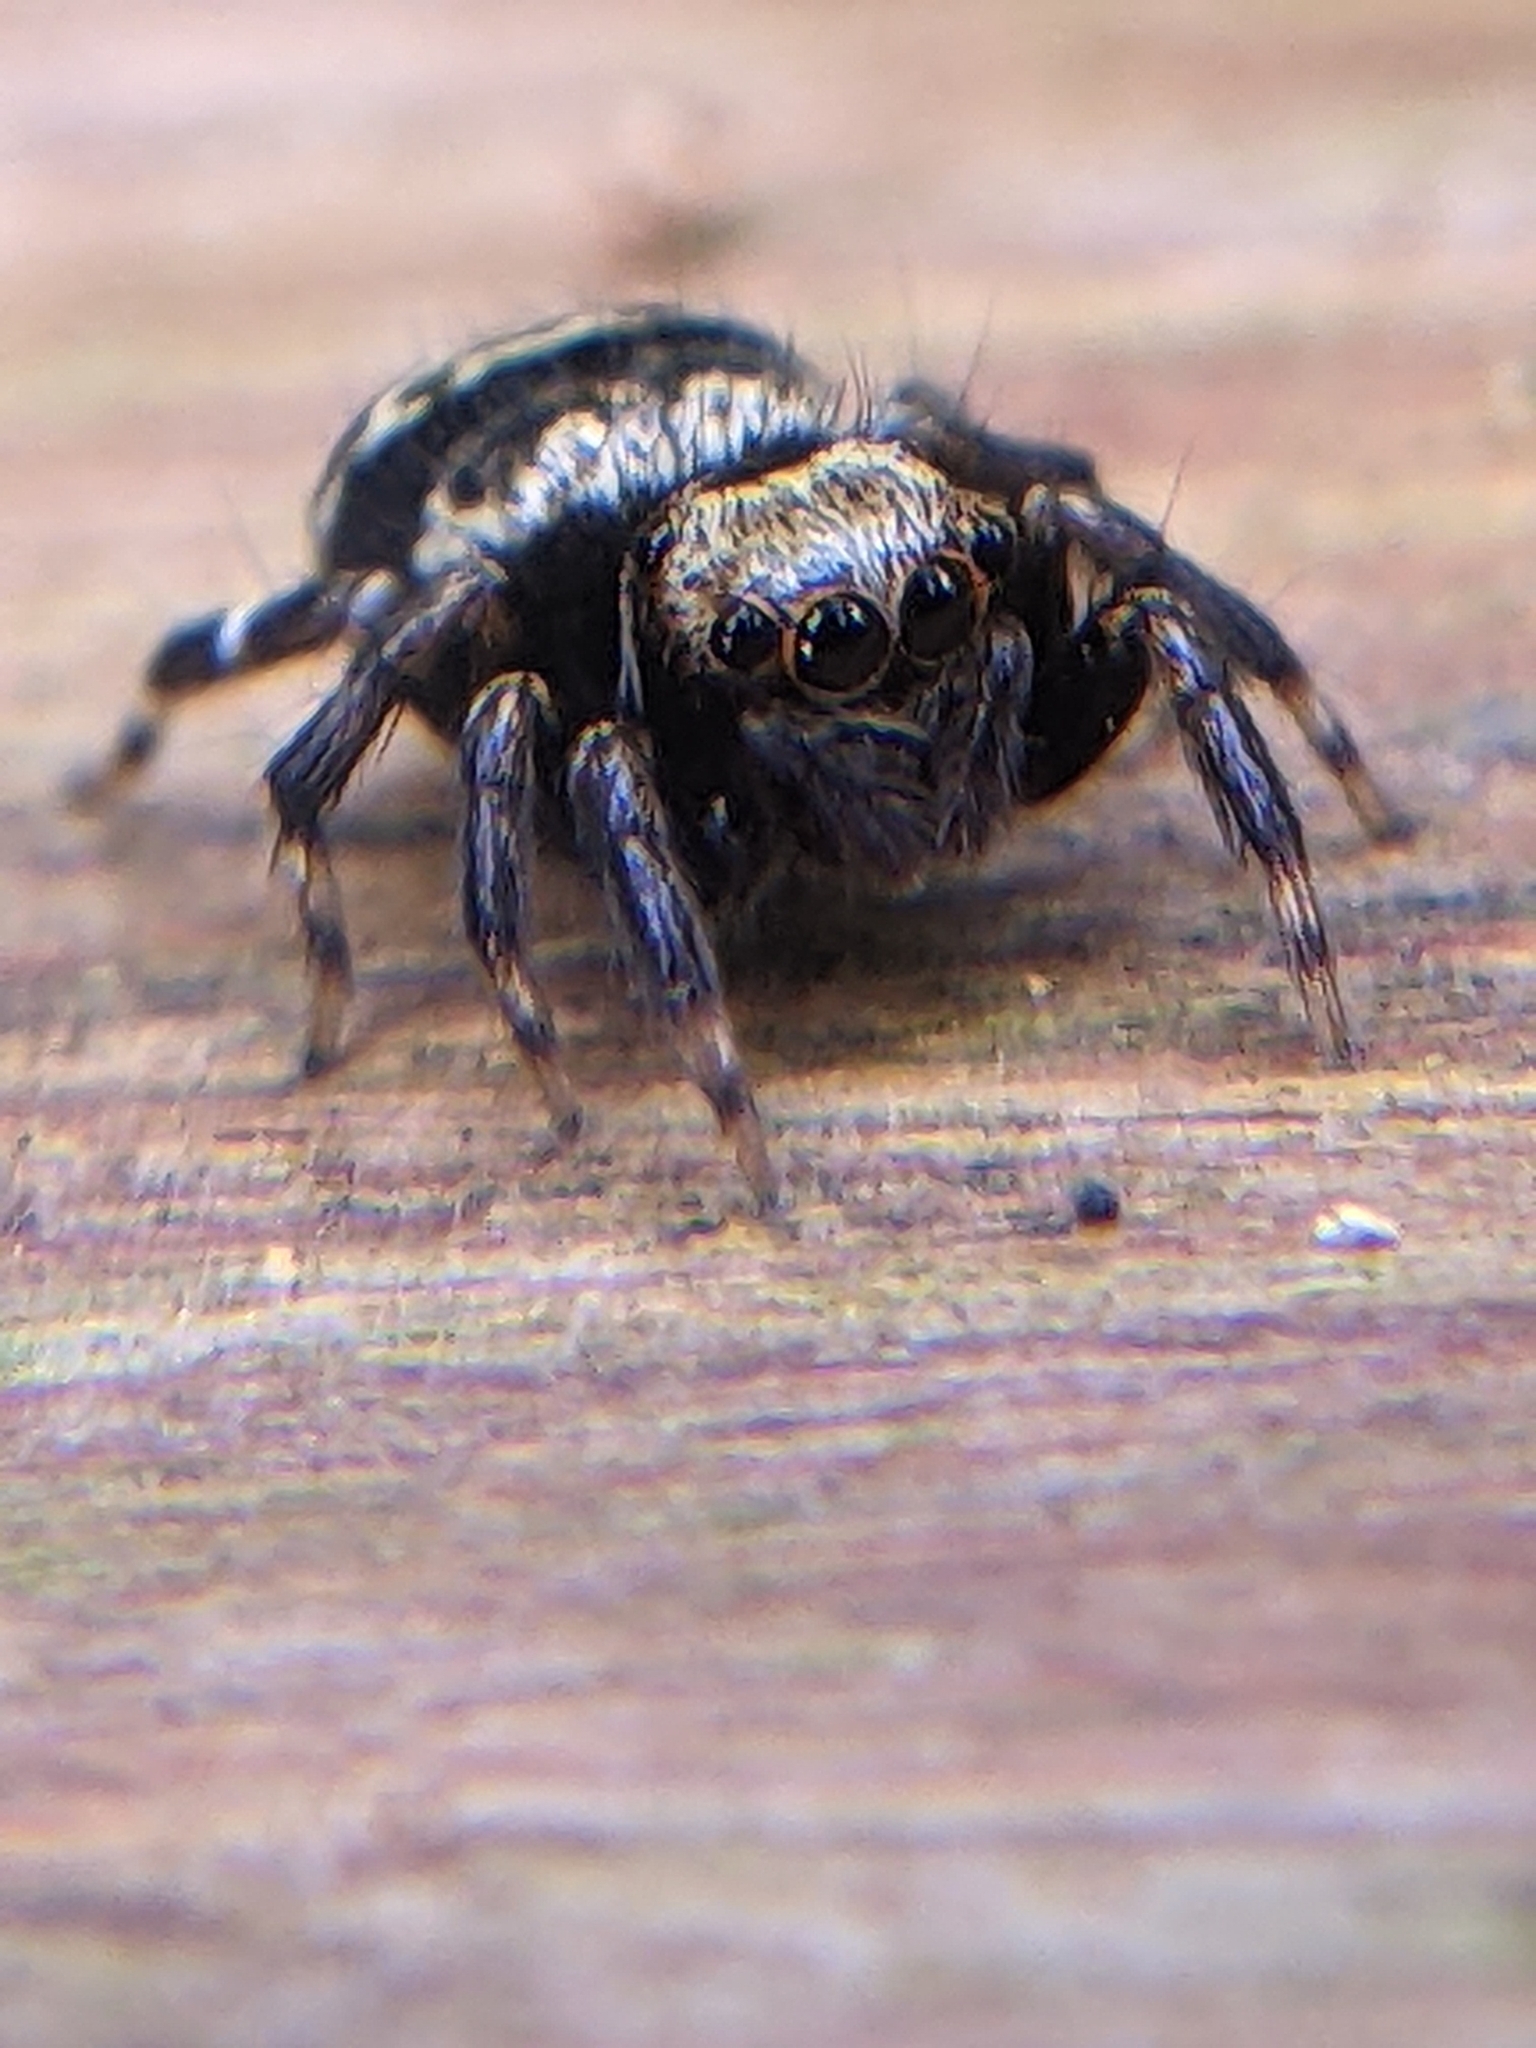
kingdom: Animalia
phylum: Arthropoda
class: Arachnida
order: Araneae
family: Salticidae
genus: Thorelliola
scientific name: Thorelliola ensifera
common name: Jumping spider
